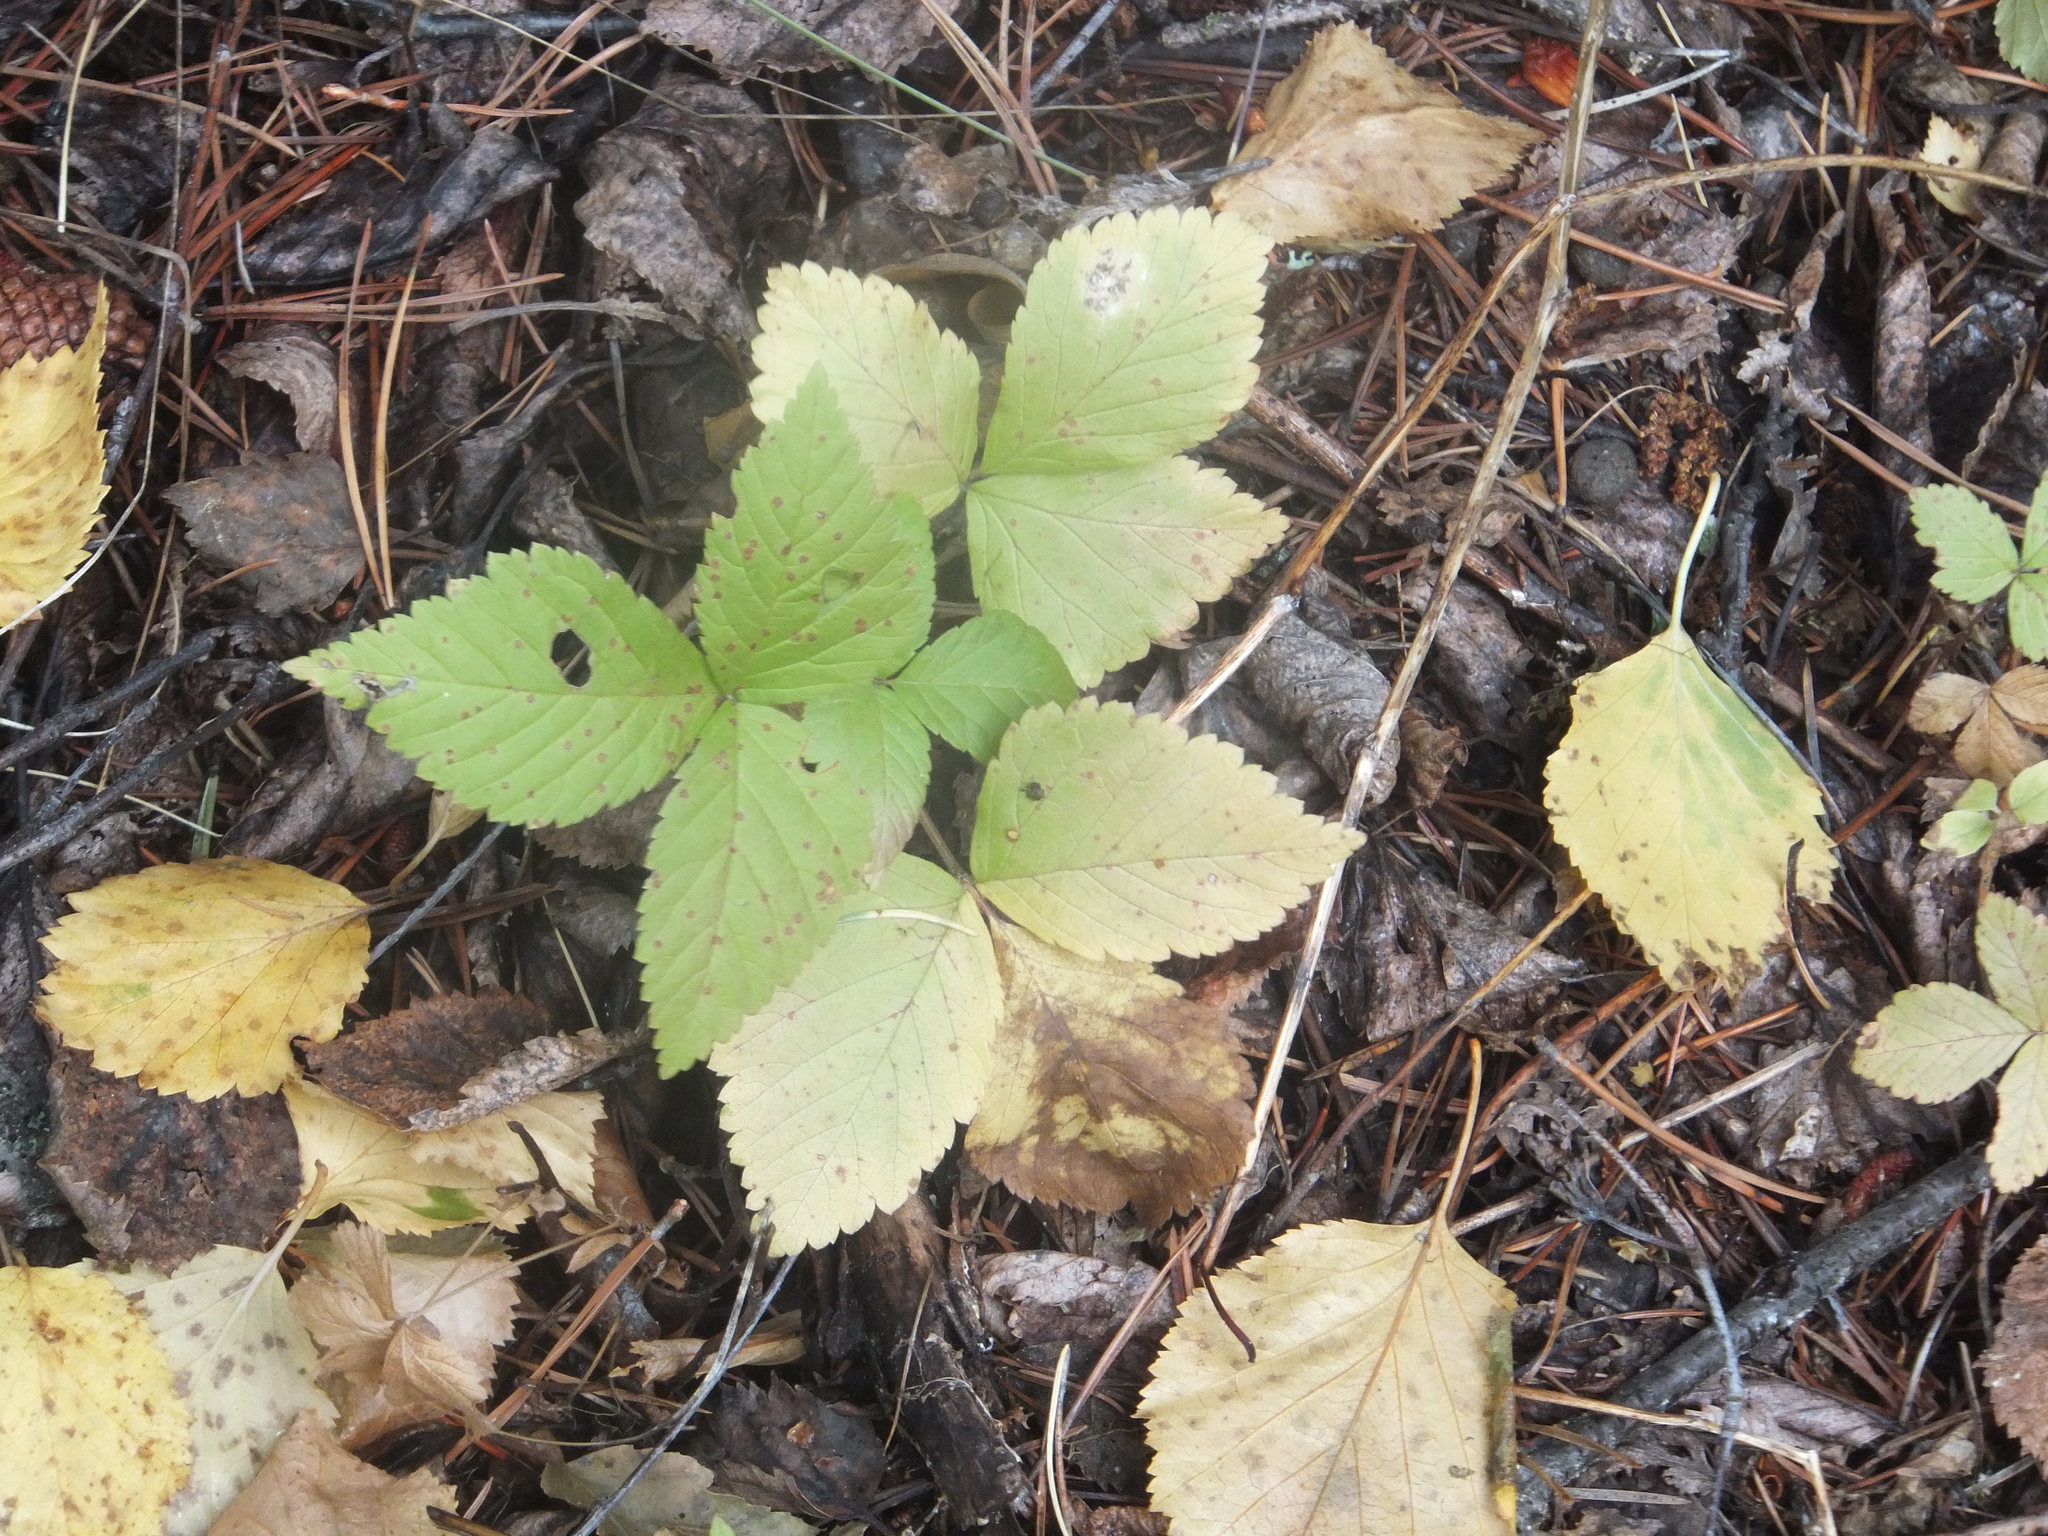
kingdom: Plantae
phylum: Tracheophyta
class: Magnoliopsida
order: Rosales
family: Rosaceae
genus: Rubus
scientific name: Rubus pubescens
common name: Dwarf raspberry
